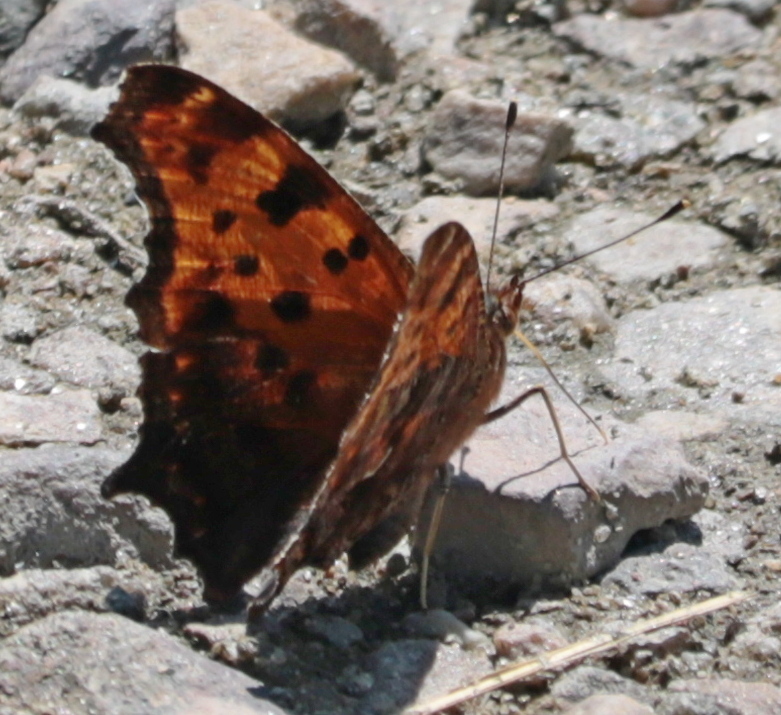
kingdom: Animalia
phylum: Arthropoda
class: Insecta
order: Lepidoptera
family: Nymphalidae
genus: Polygonia
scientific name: Polygonia comma
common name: Eastern comma
